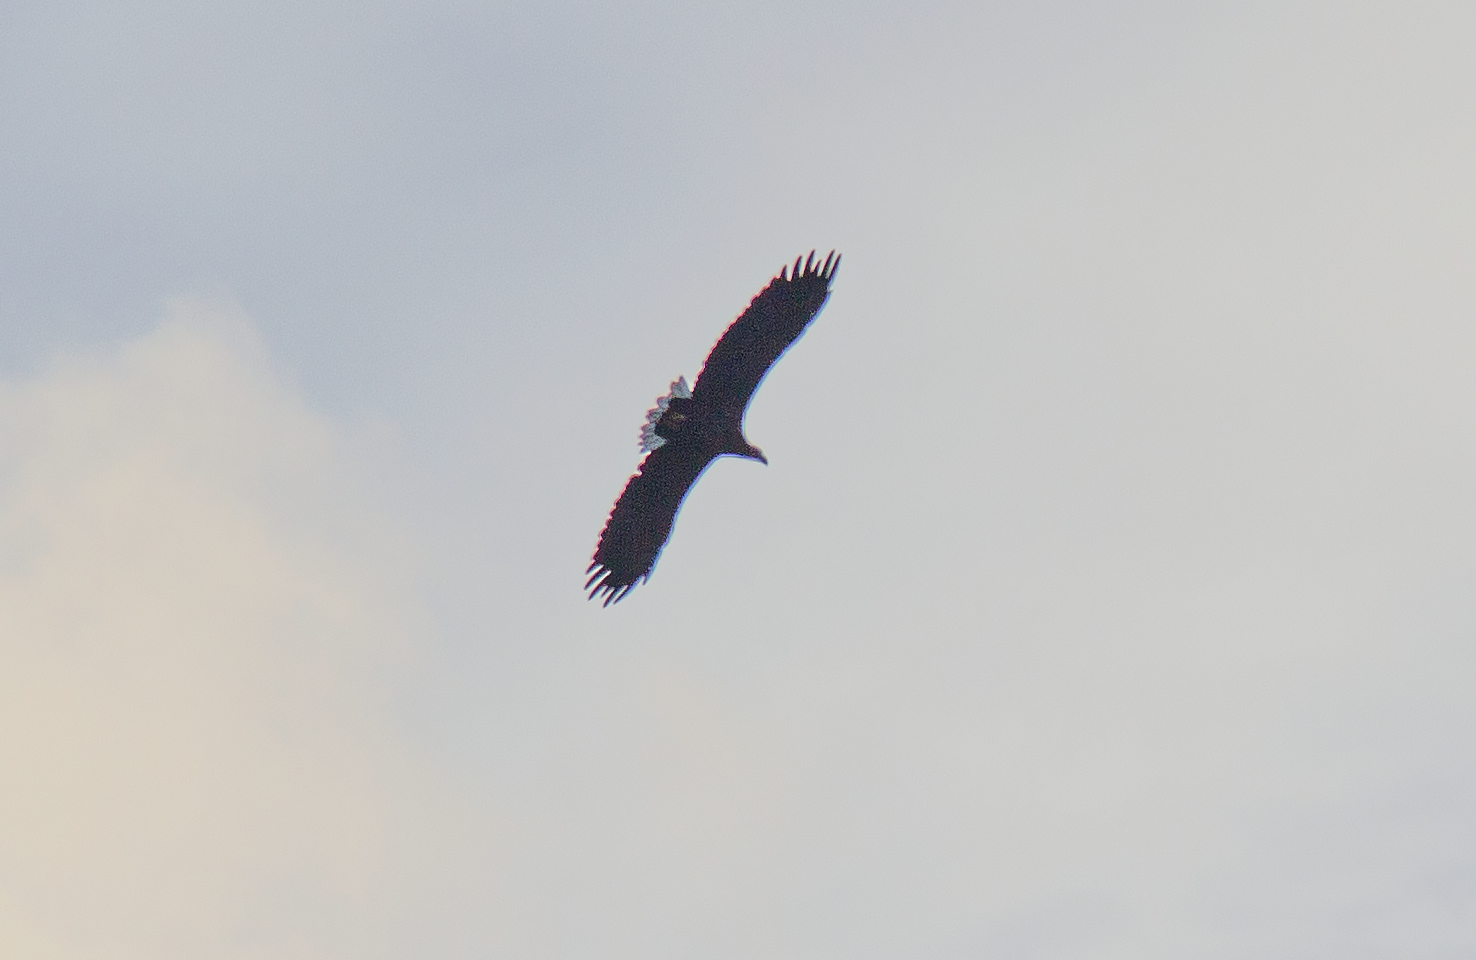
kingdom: Animalia
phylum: Chordata
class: Aves
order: Accipitriformes
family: Accipitridae
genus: Haliaeetus
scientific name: Haliaeetus albicilla
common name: White-tailed eagle
